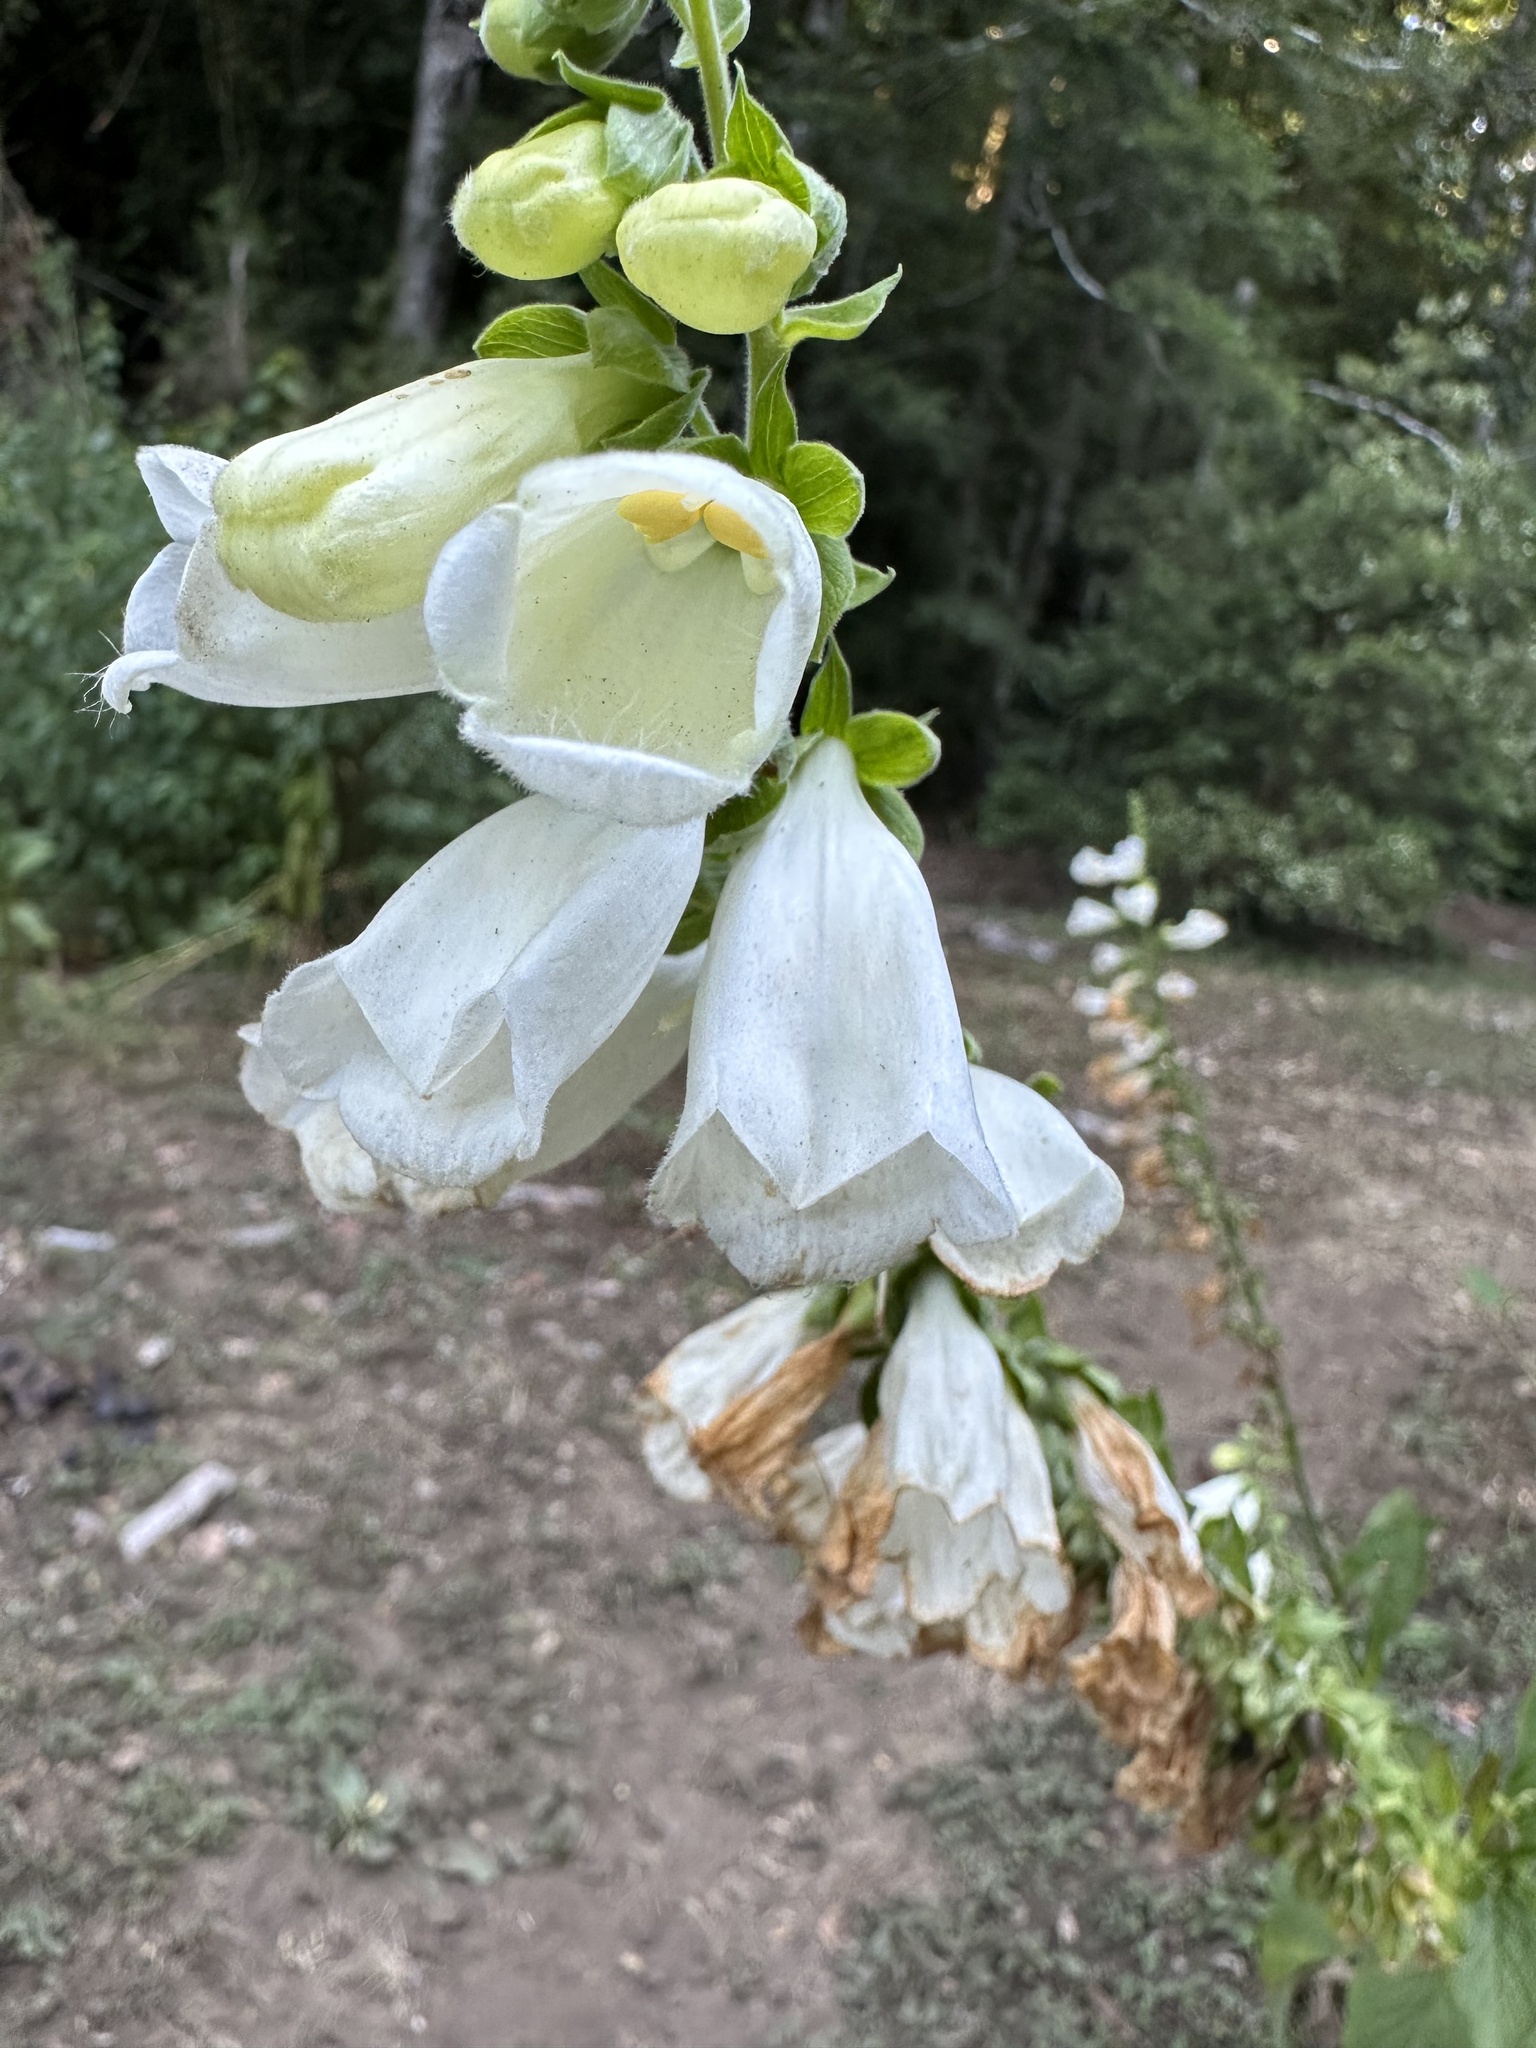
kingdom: Plantae
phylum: Tracheophyta
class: Magnoliopsida
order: Lamiales
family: Plantaginaceae
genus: Digitalis
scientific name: Digitalis purpurea
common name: Foxglove
